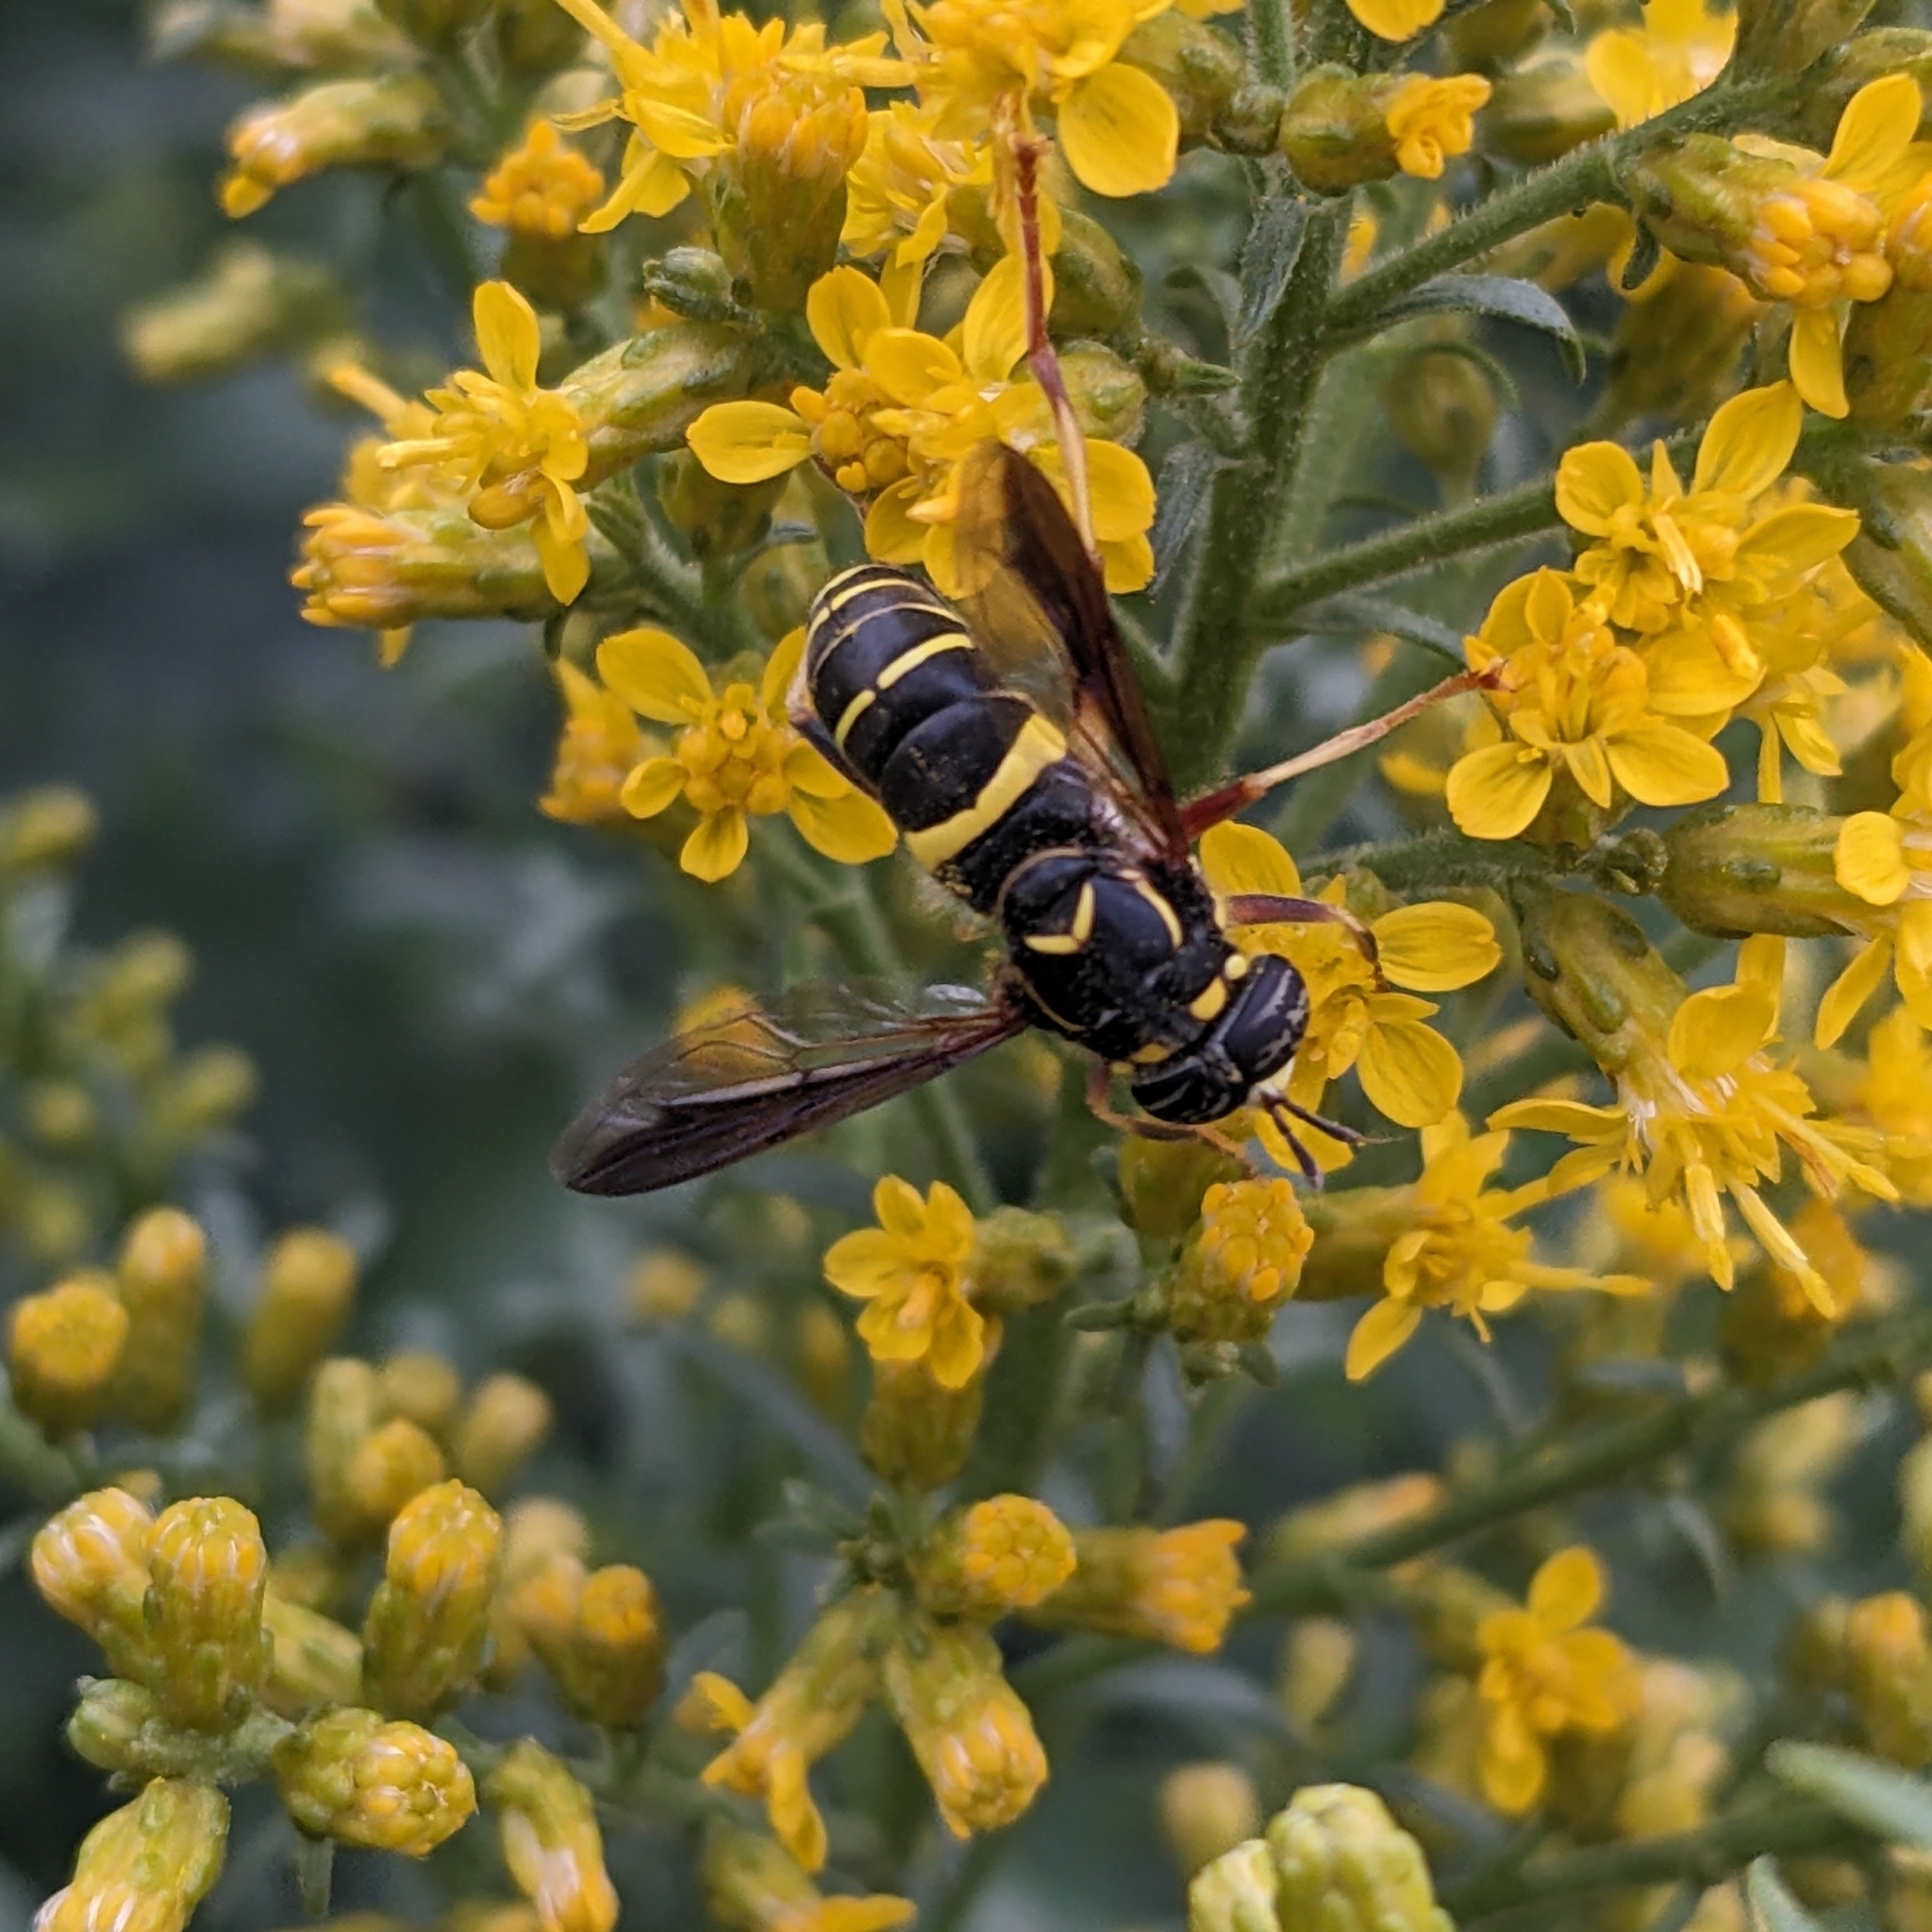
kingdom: Animalia
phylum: Arthropoda
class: Insecta
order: Diptera
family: Syrphidae
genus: Spilomyia
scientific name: Spilomyia sayi
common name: Four-lined hornet fly
